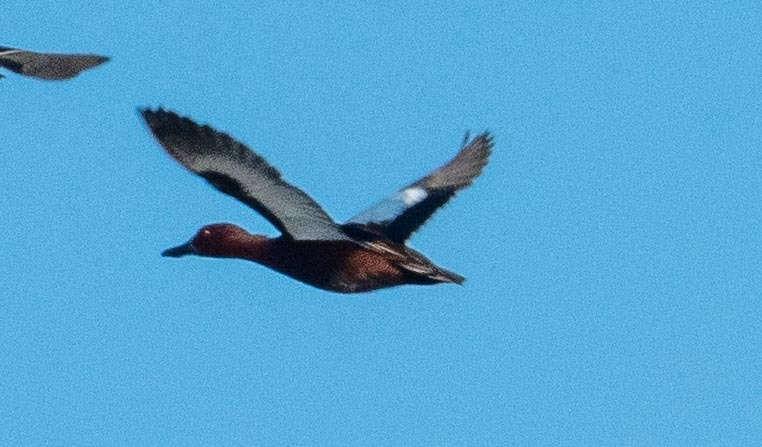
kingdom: Animalia
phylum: Chordata
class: Aves
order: Anseriformes
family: Anatidae
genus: Spatula
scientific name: Spatula cyanoptera
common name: Cinnamon teal
